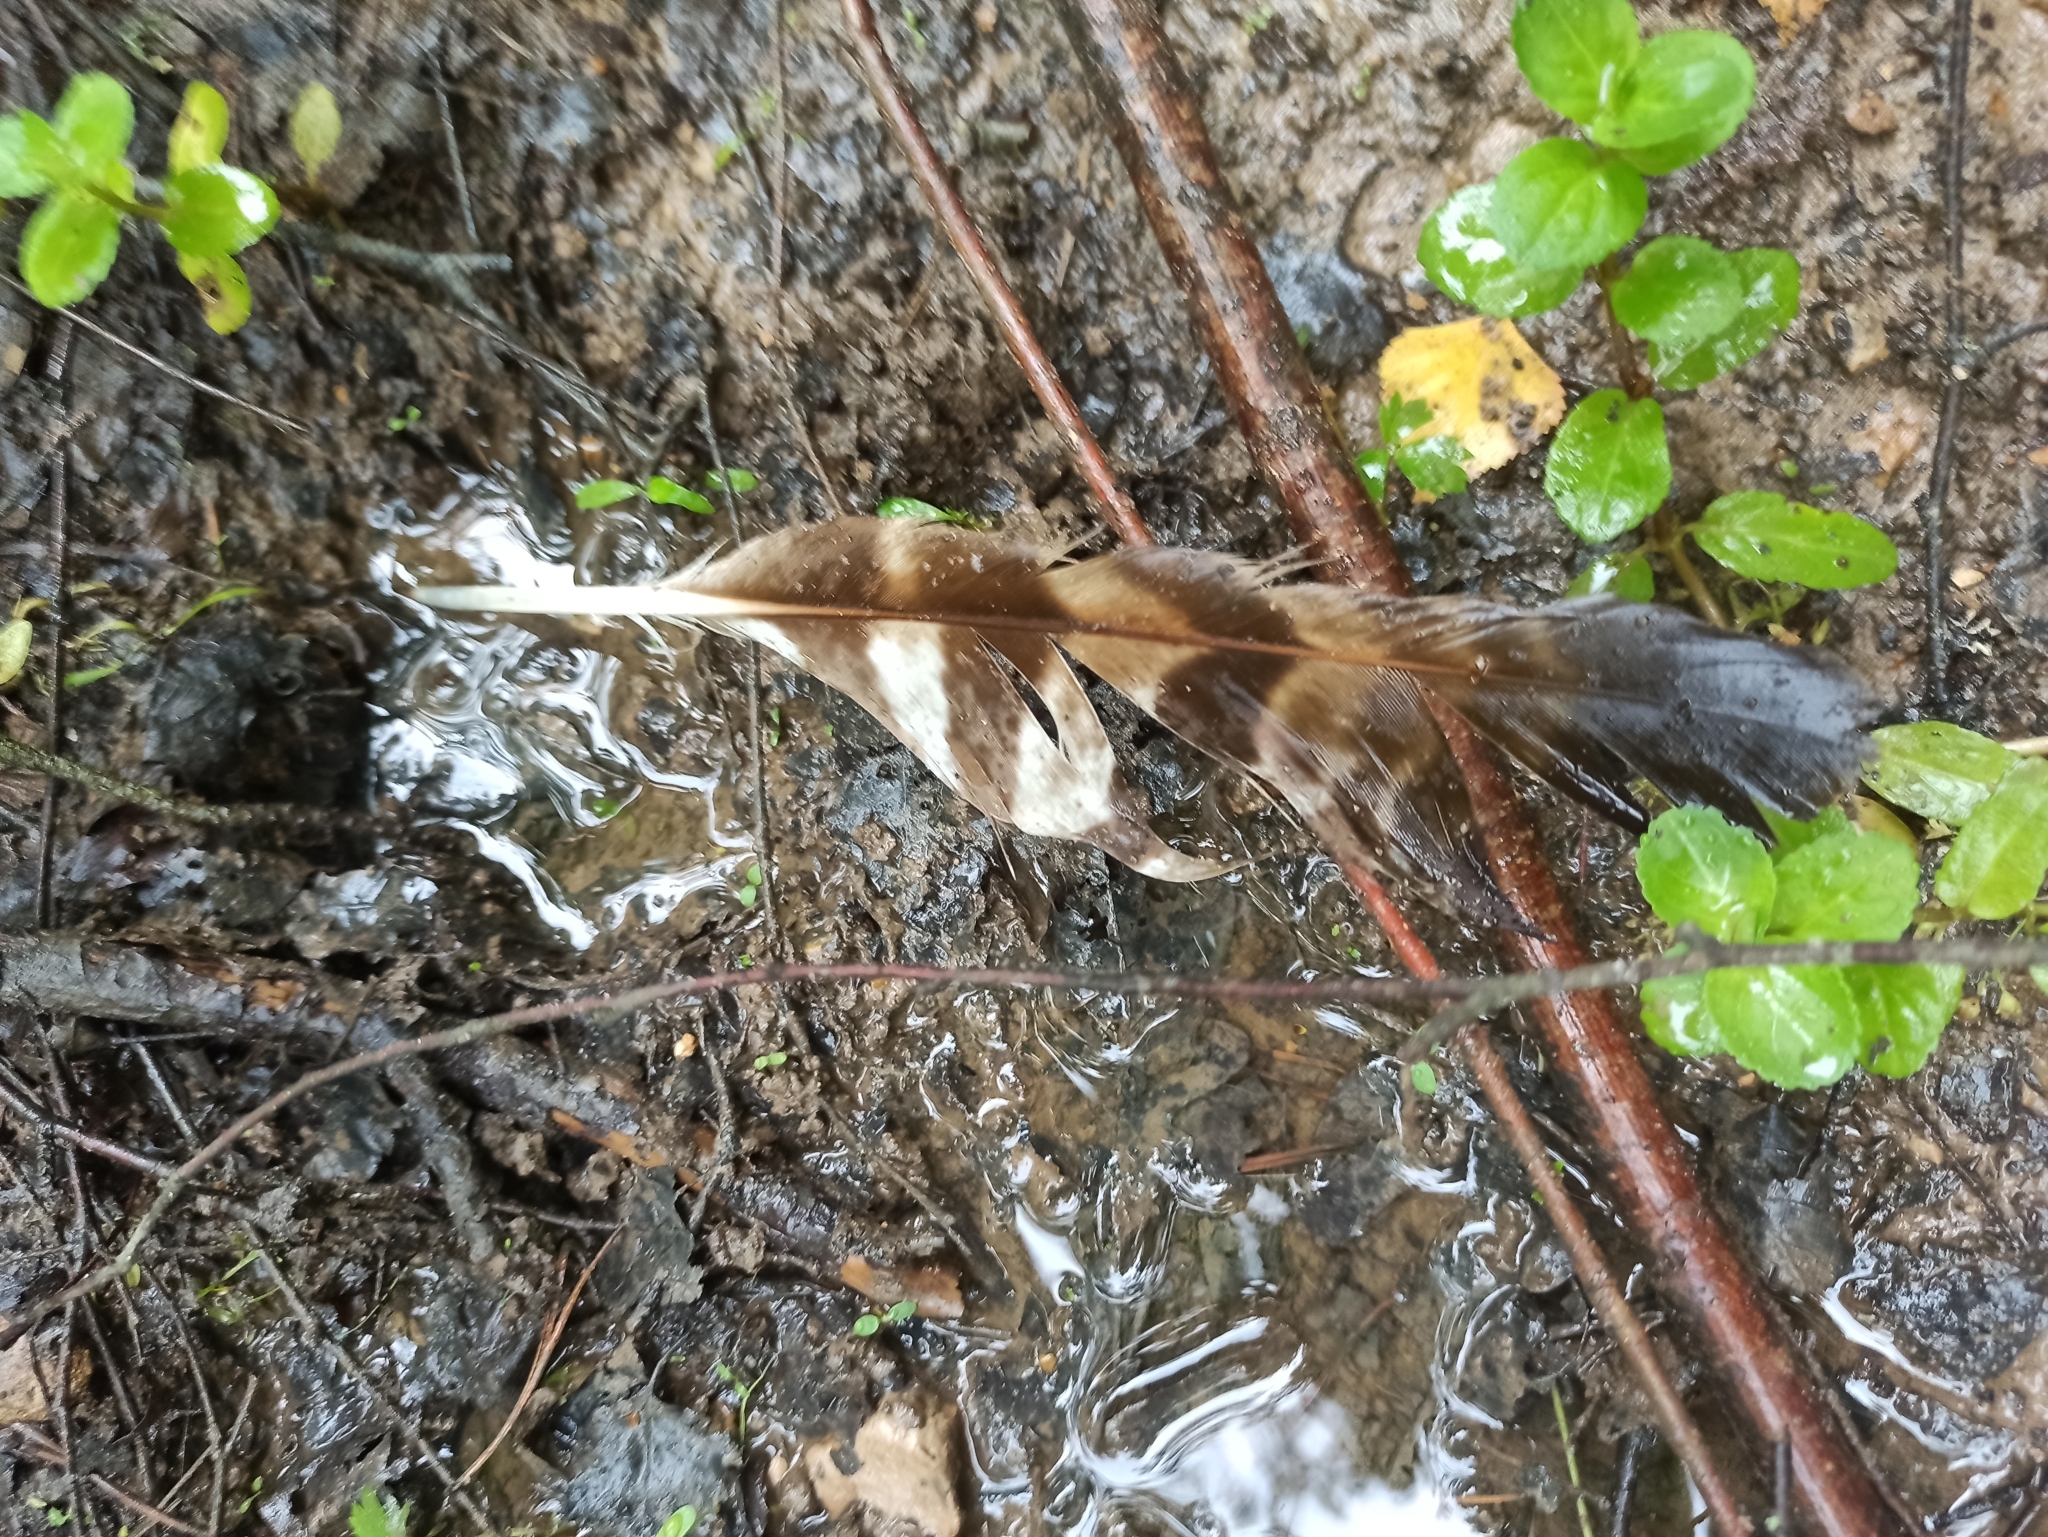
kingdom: Animalia
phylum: Chordata
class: Aves
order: Accipitriformes
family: Accipitridae
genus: Pernis
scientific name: Pernis apivorus
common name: European honey buzzard
